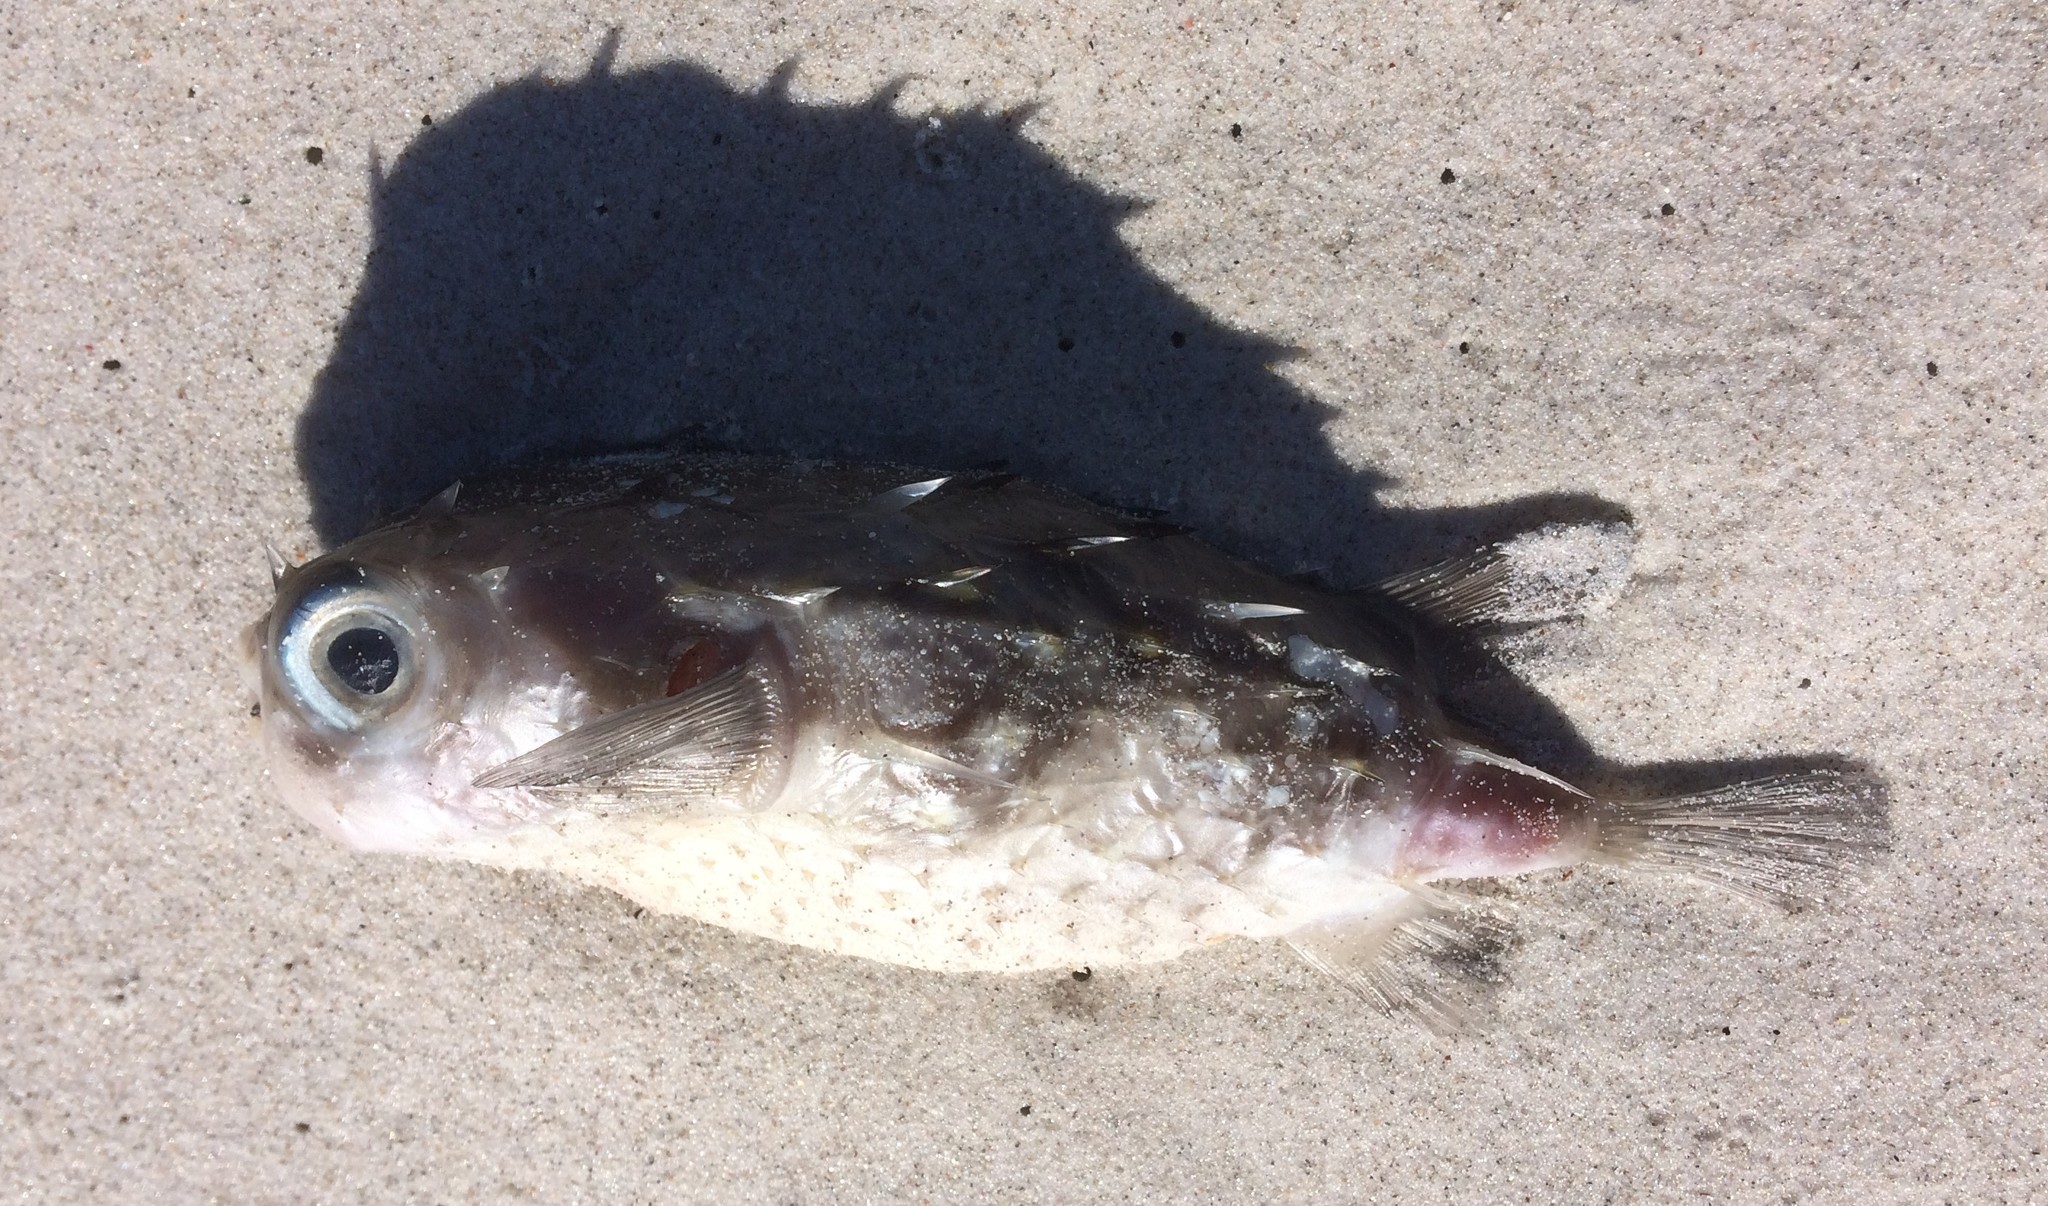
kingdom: Animalia
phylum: Chordata
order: Tetraodontiformes
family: Diodontidae
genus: Allomycterus
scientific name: Allomycterus pilatus
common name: No common name
